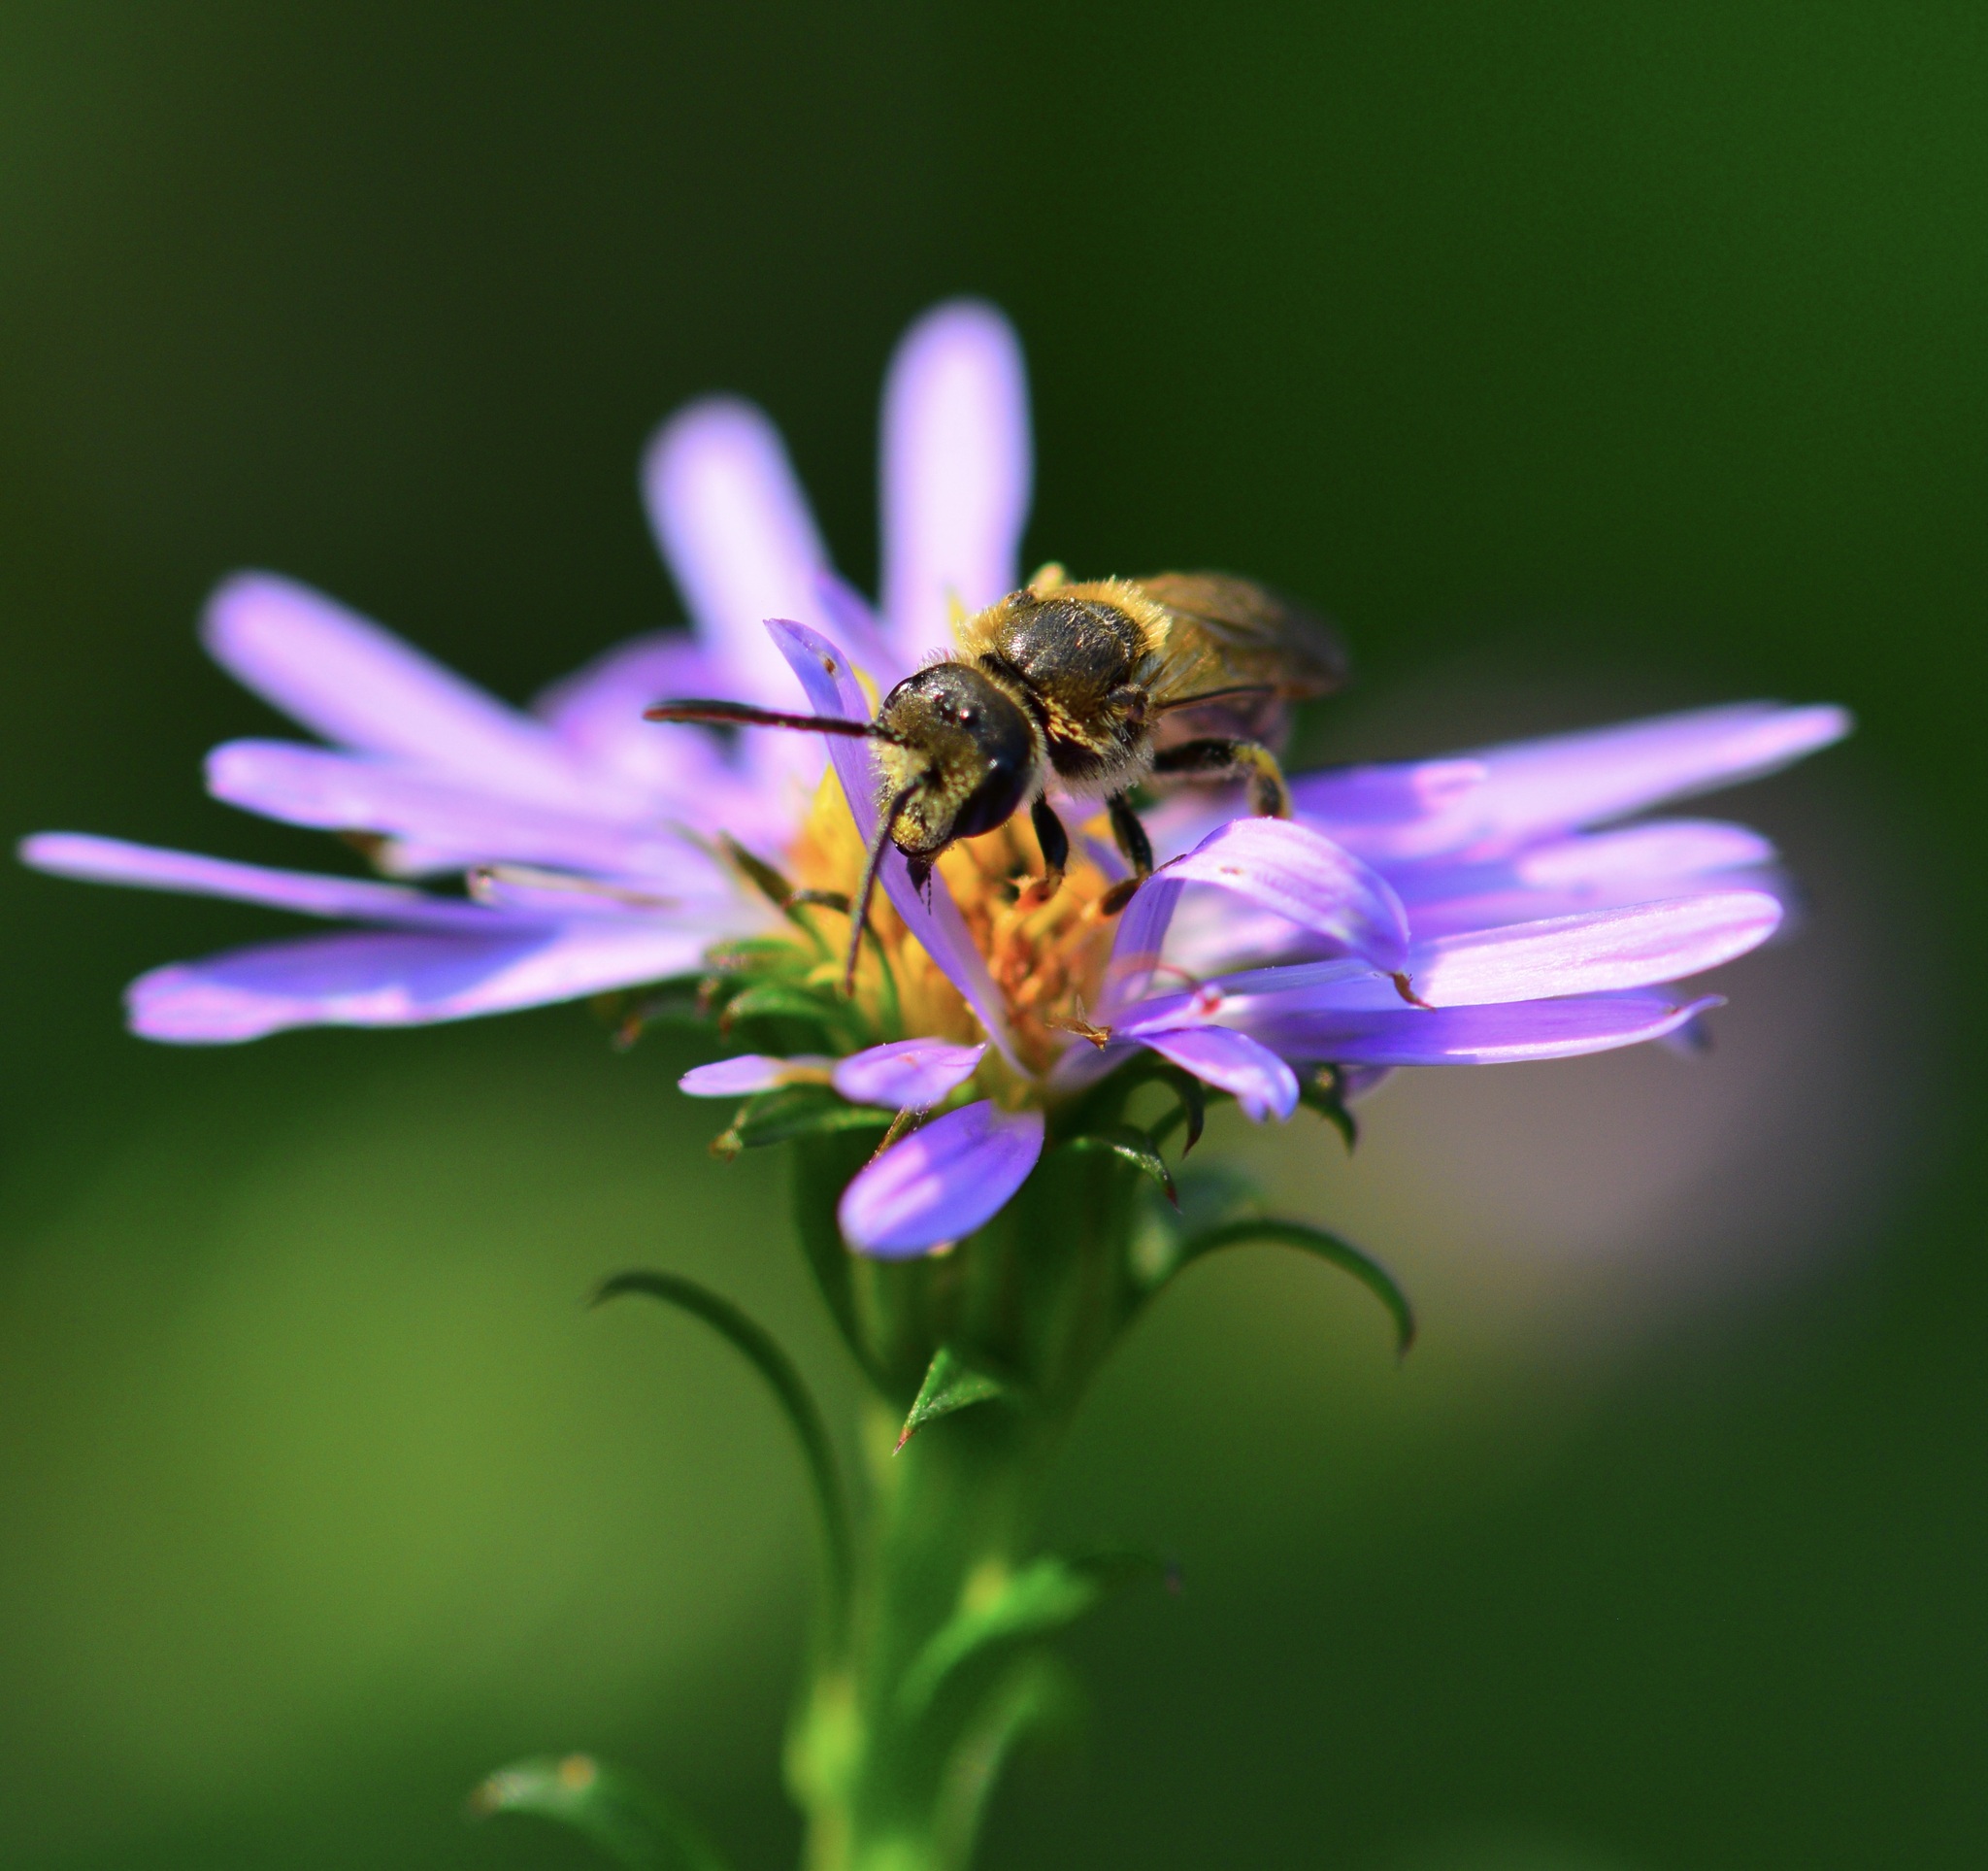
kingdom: Animalia
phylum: Arthropoda
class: Insecta
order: Hymenoptera
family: Halictidae
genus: Halictus
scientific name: Halictus ligatus
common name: Ligated furrow bee
